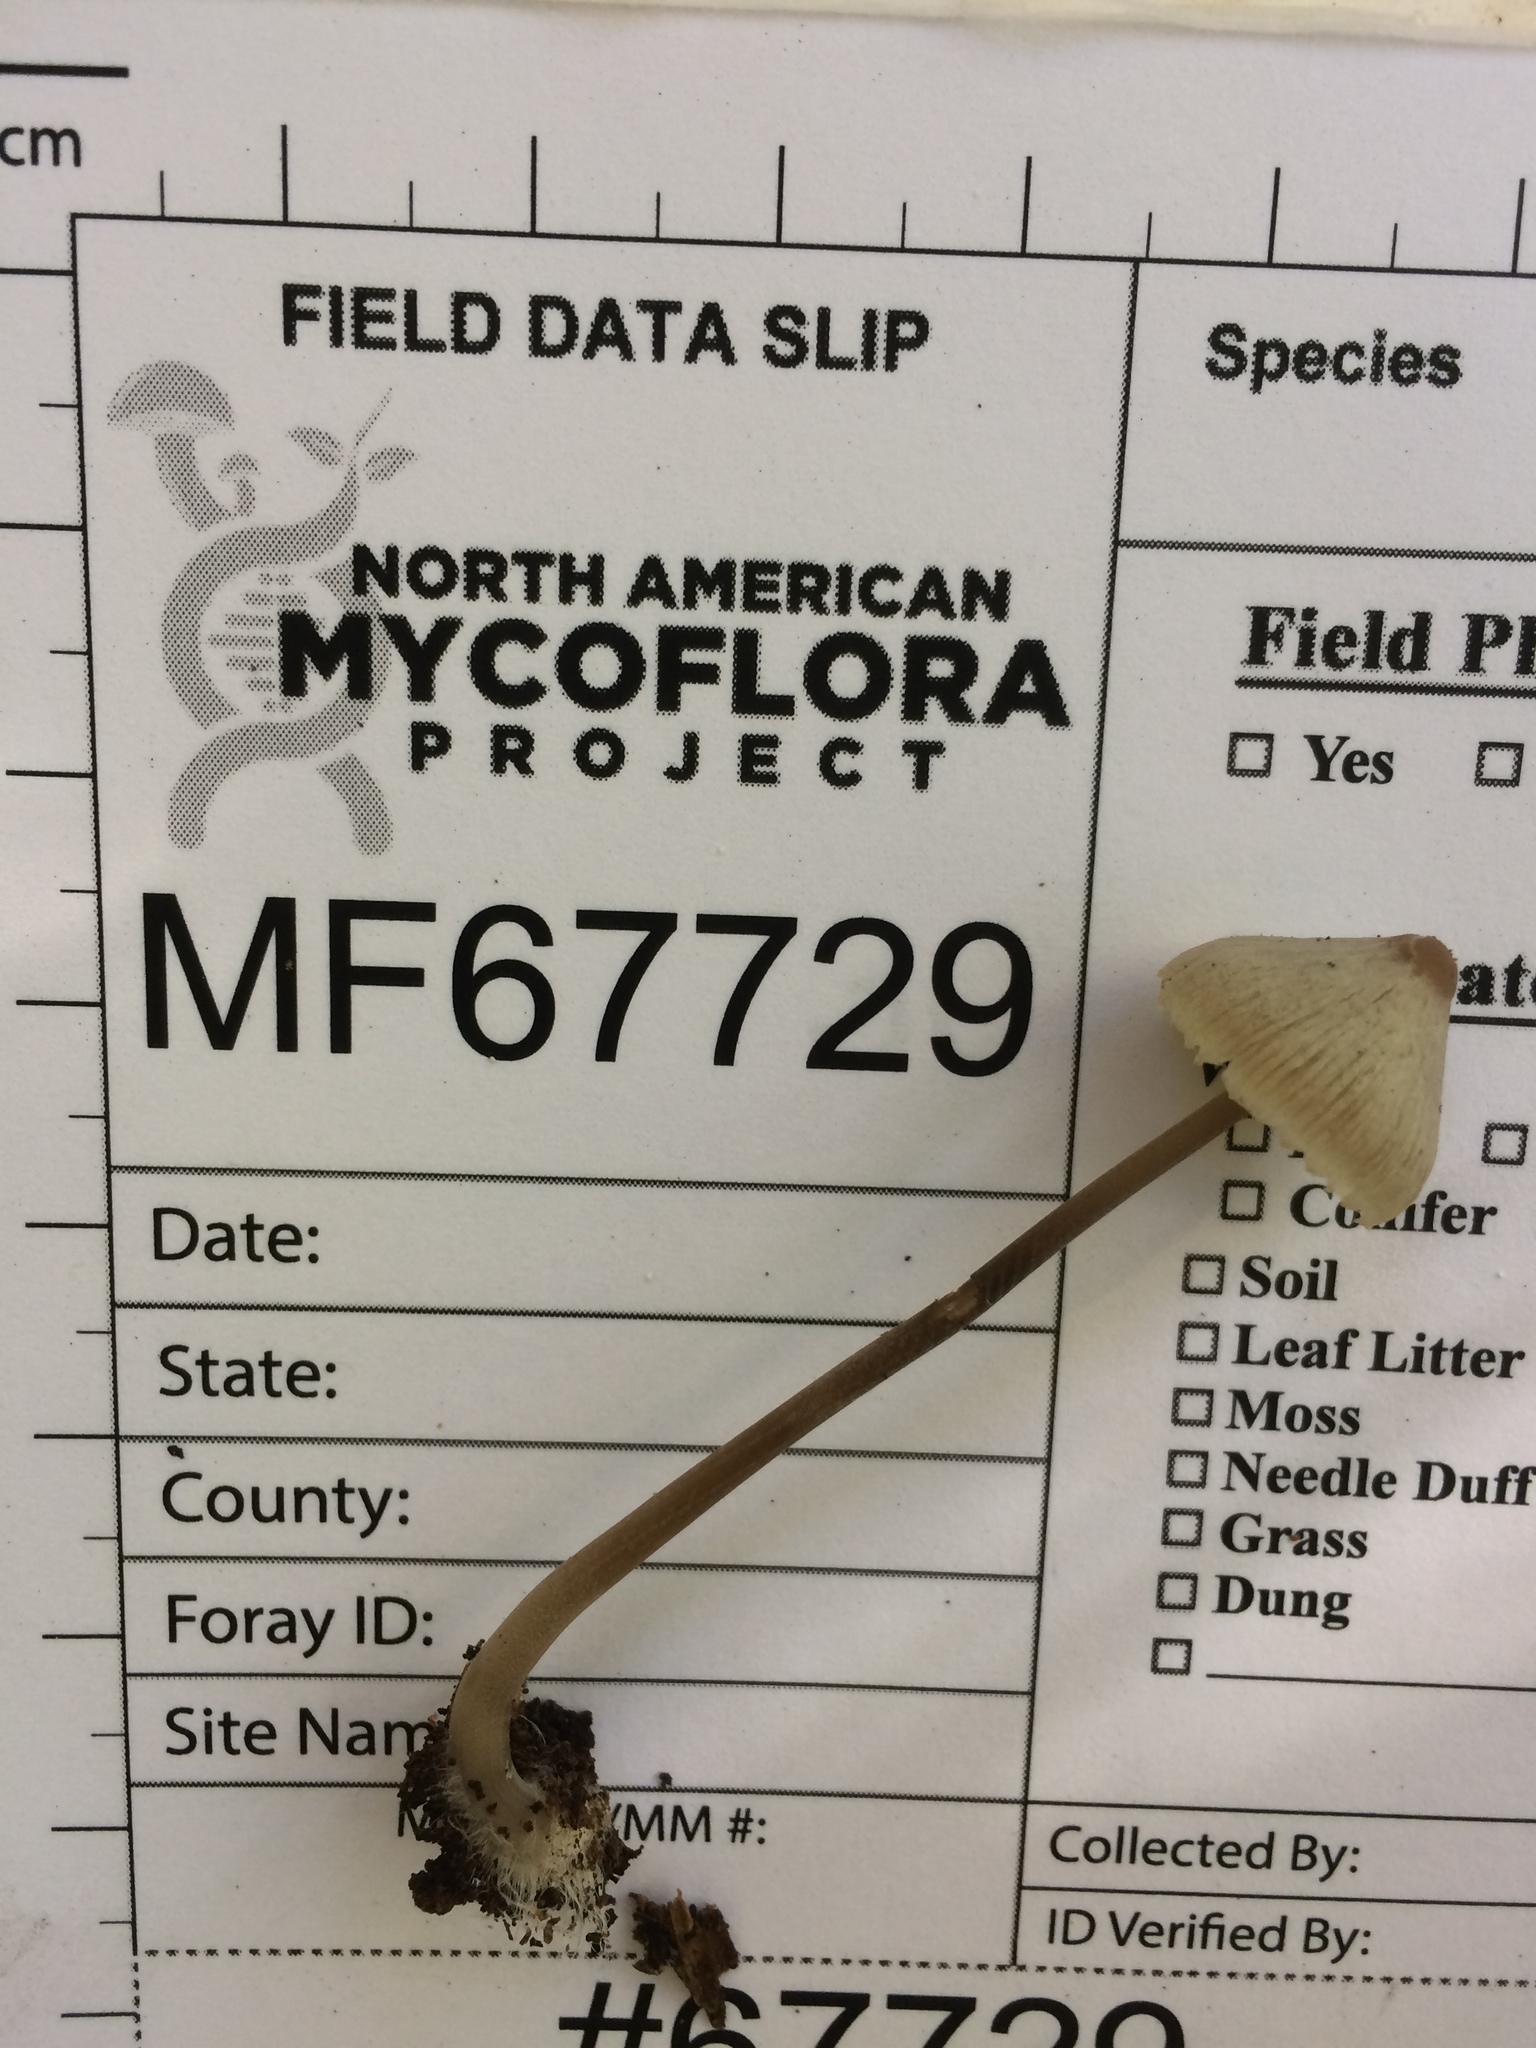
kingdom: Fungi
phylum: Basidiomycota
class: Agaricomycetes
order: Agaricales
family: Mycenaceae
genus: Mycena
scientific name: Mycena filopes
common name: Iodine bonnet
